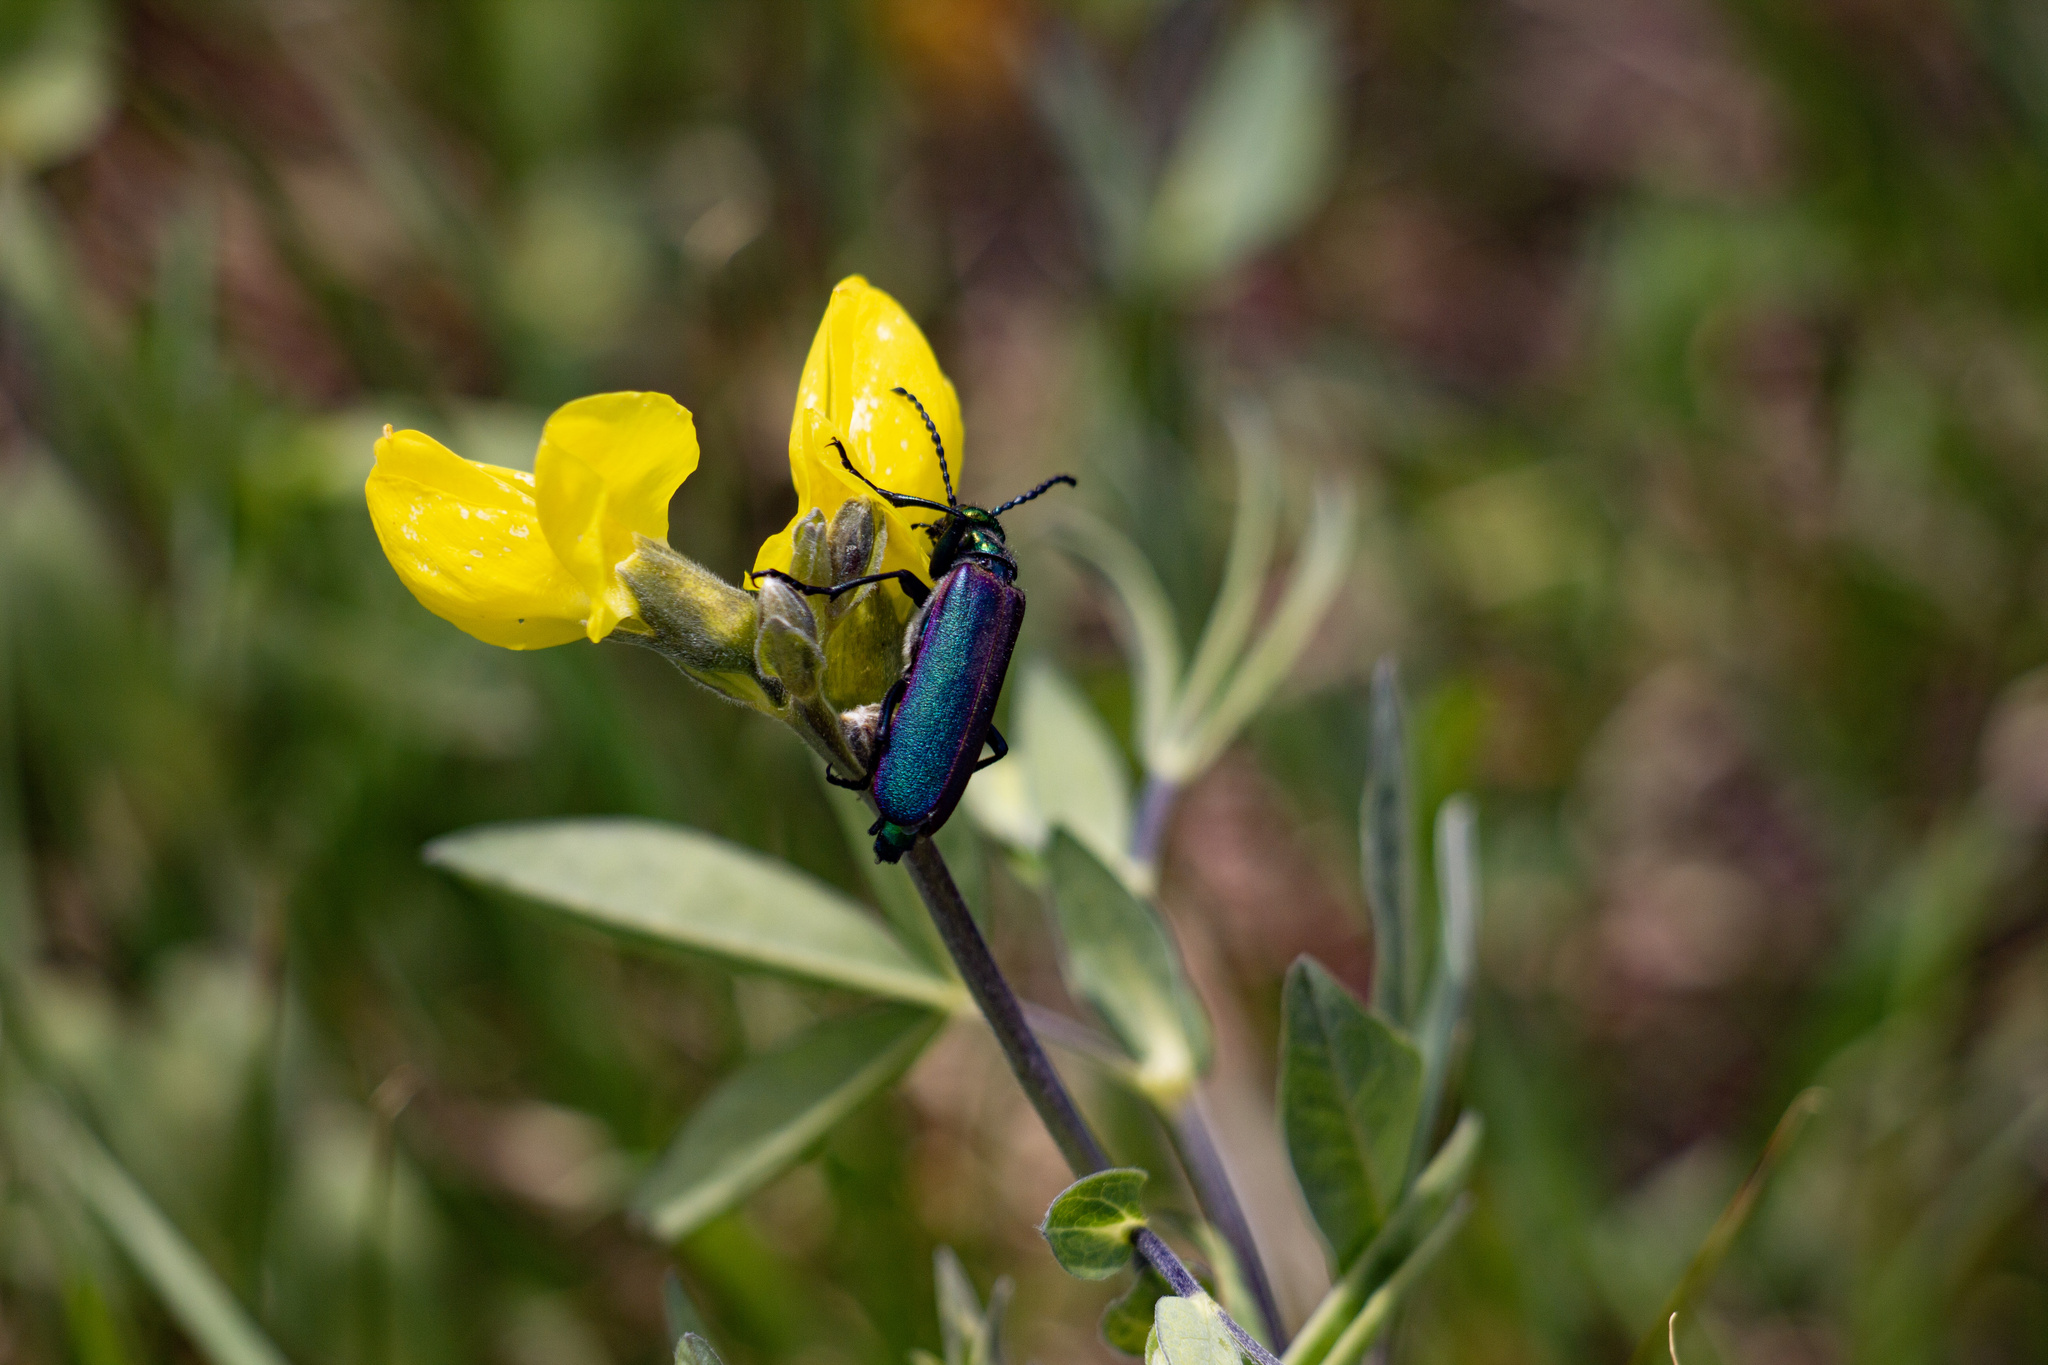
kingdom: Animalia
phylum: Arthropoda
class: Insecta
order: Coleoptera
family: Meloidae
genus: Lytta
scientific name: Lytta nuttallii
